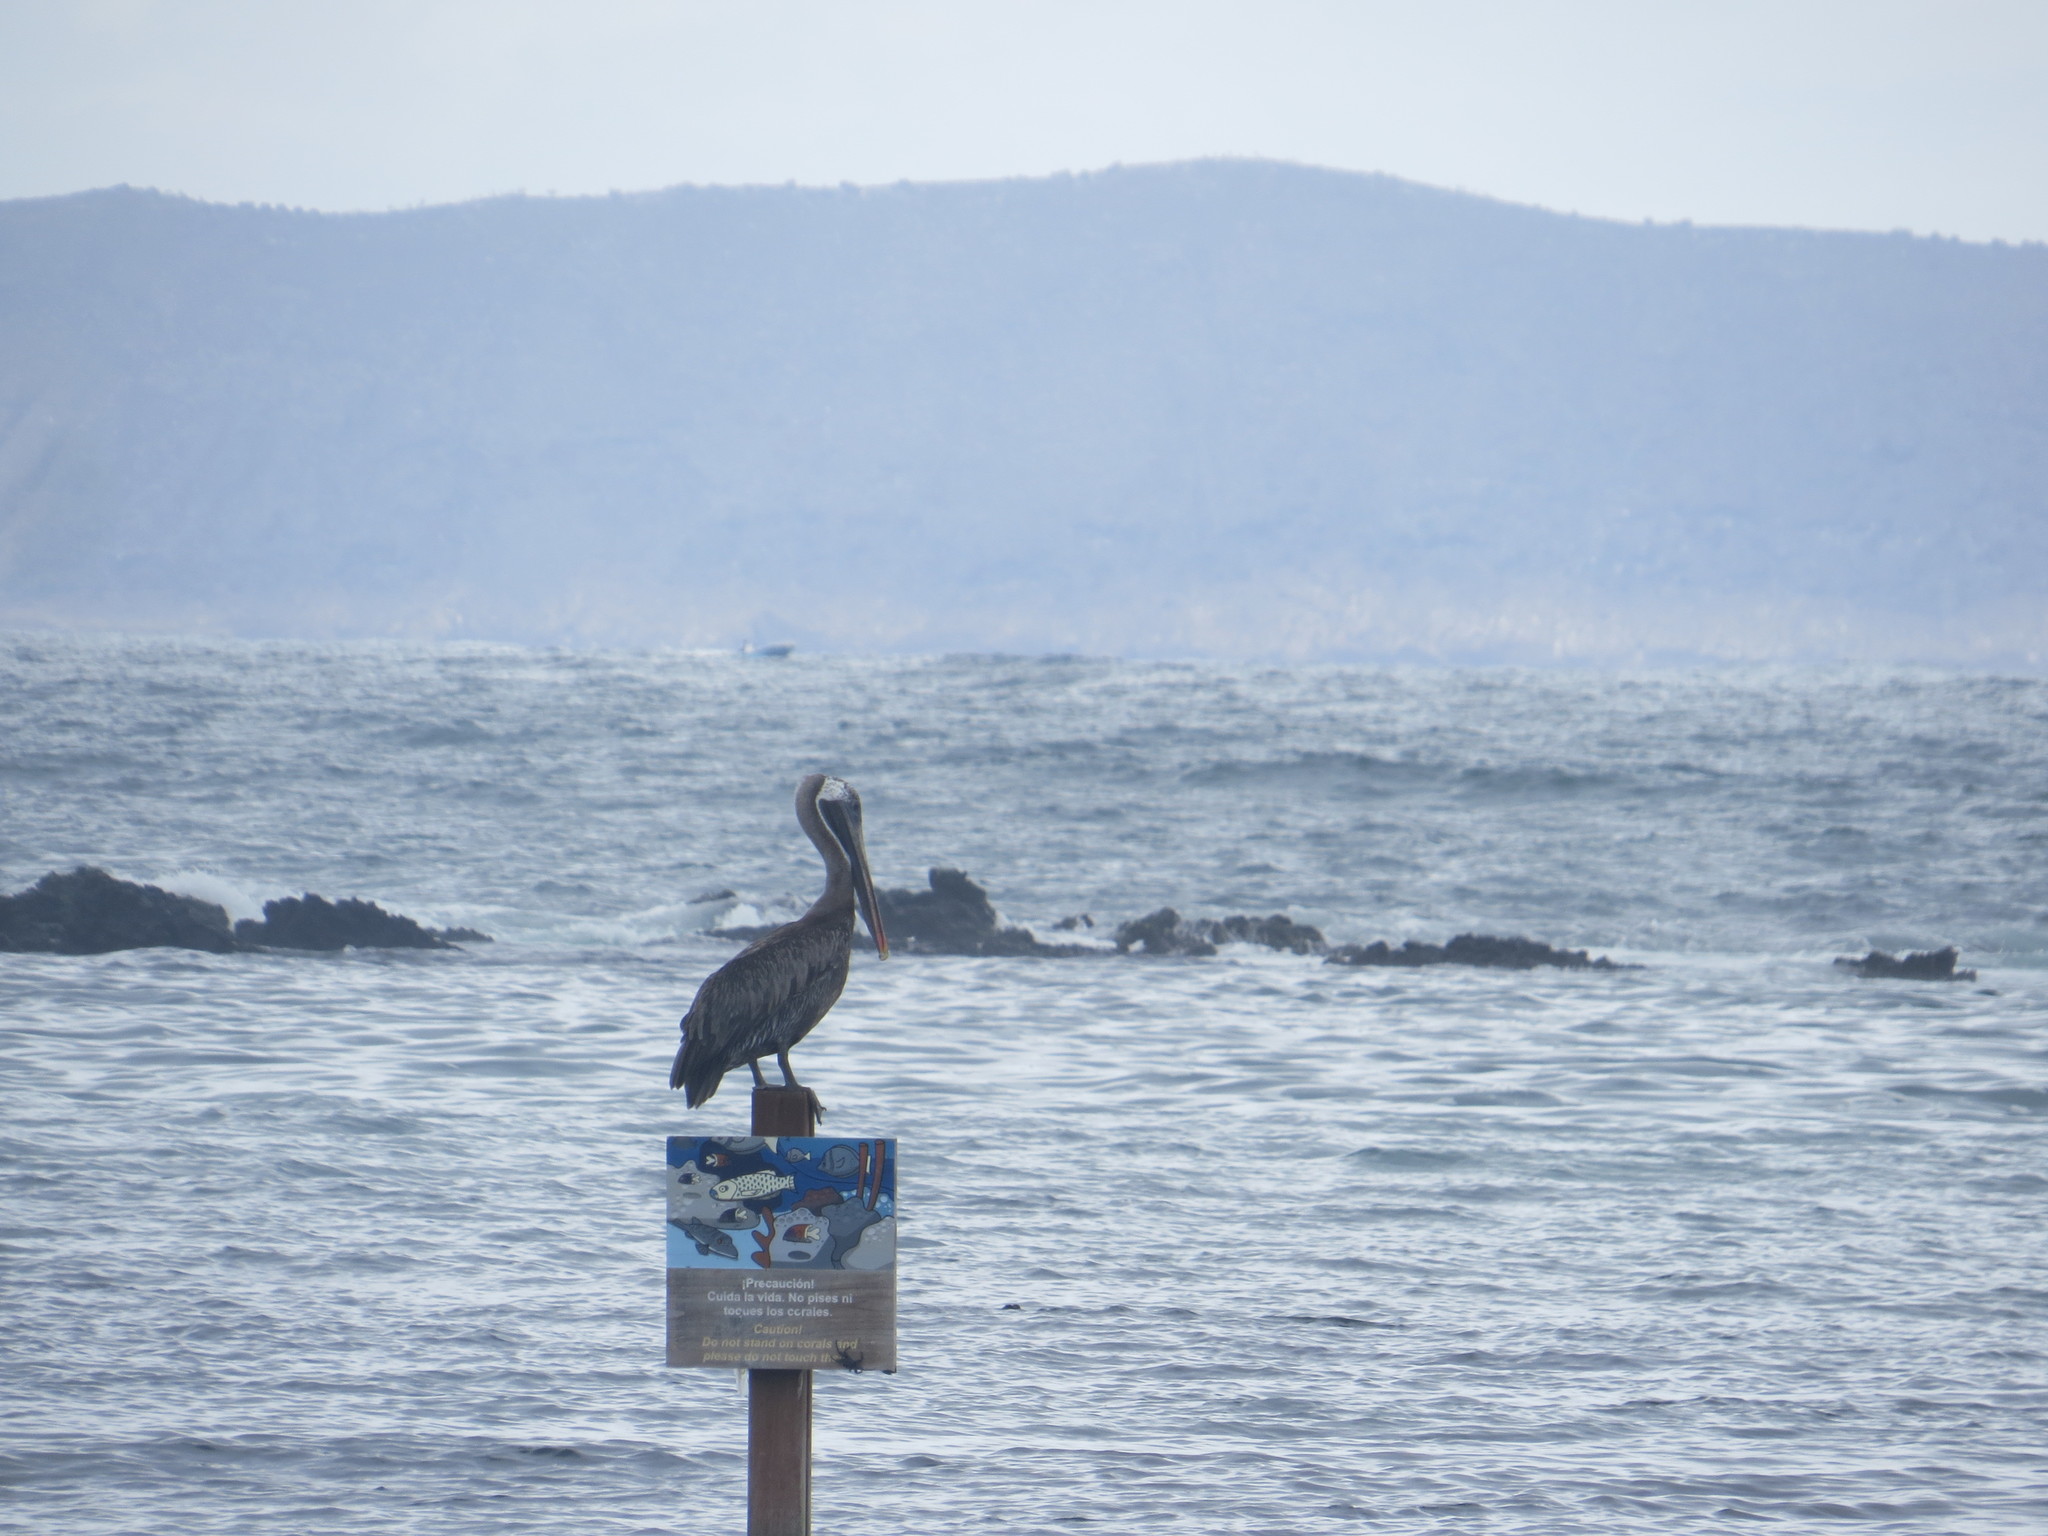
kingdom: Animalia
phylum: Chordata
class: Aves
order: Pelecaniformes
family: Pelecanidae
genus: Pelecanus
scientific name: Pelecanus occidentalis
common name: Brown pelican
